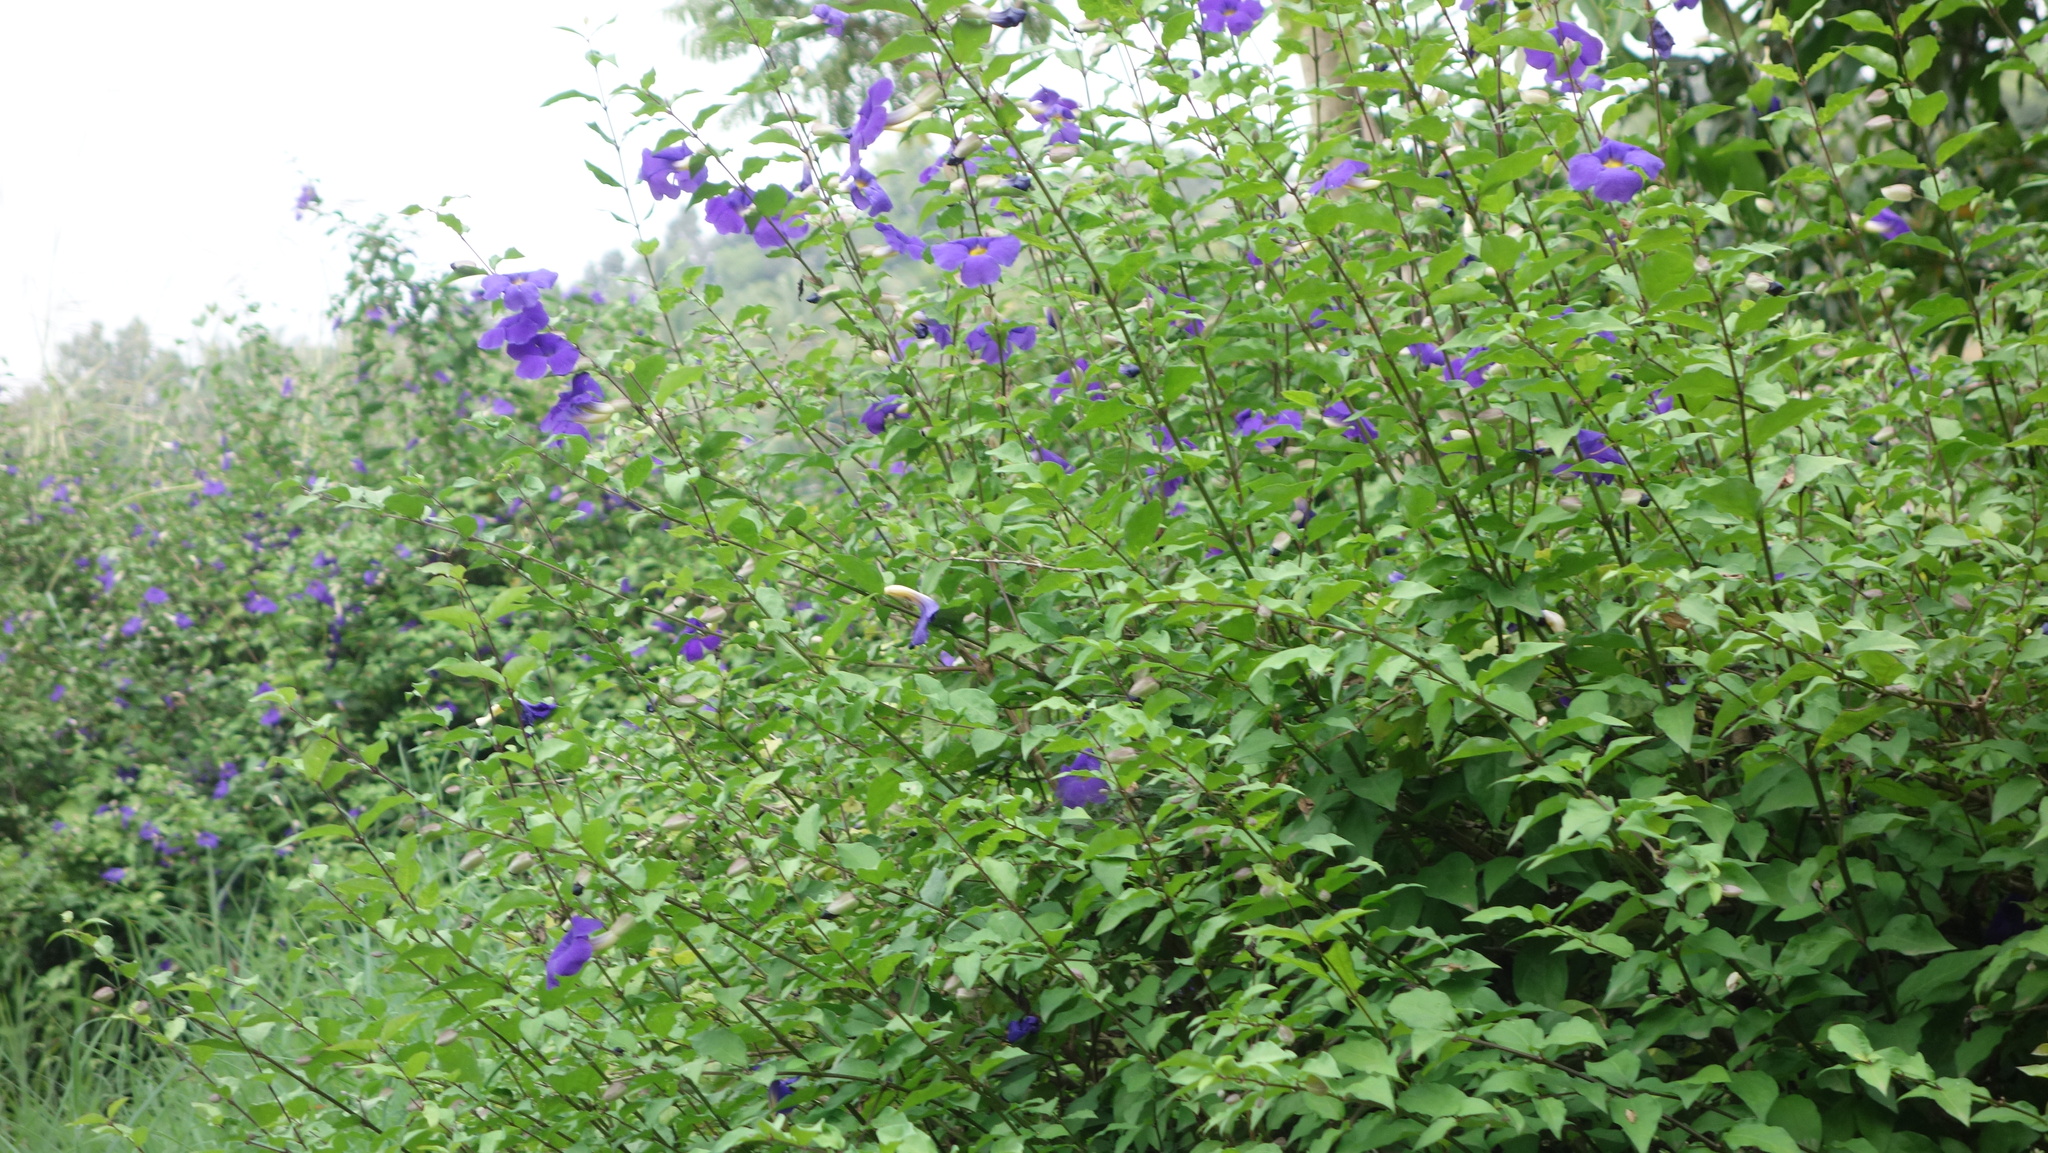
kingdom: Plantae
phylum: Tracheophyta
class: Magnoliopsida
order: Lamiales
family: Acanthaceae
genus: Thunbergia
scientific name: Thunbergia erecta
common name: Bush clockvine
